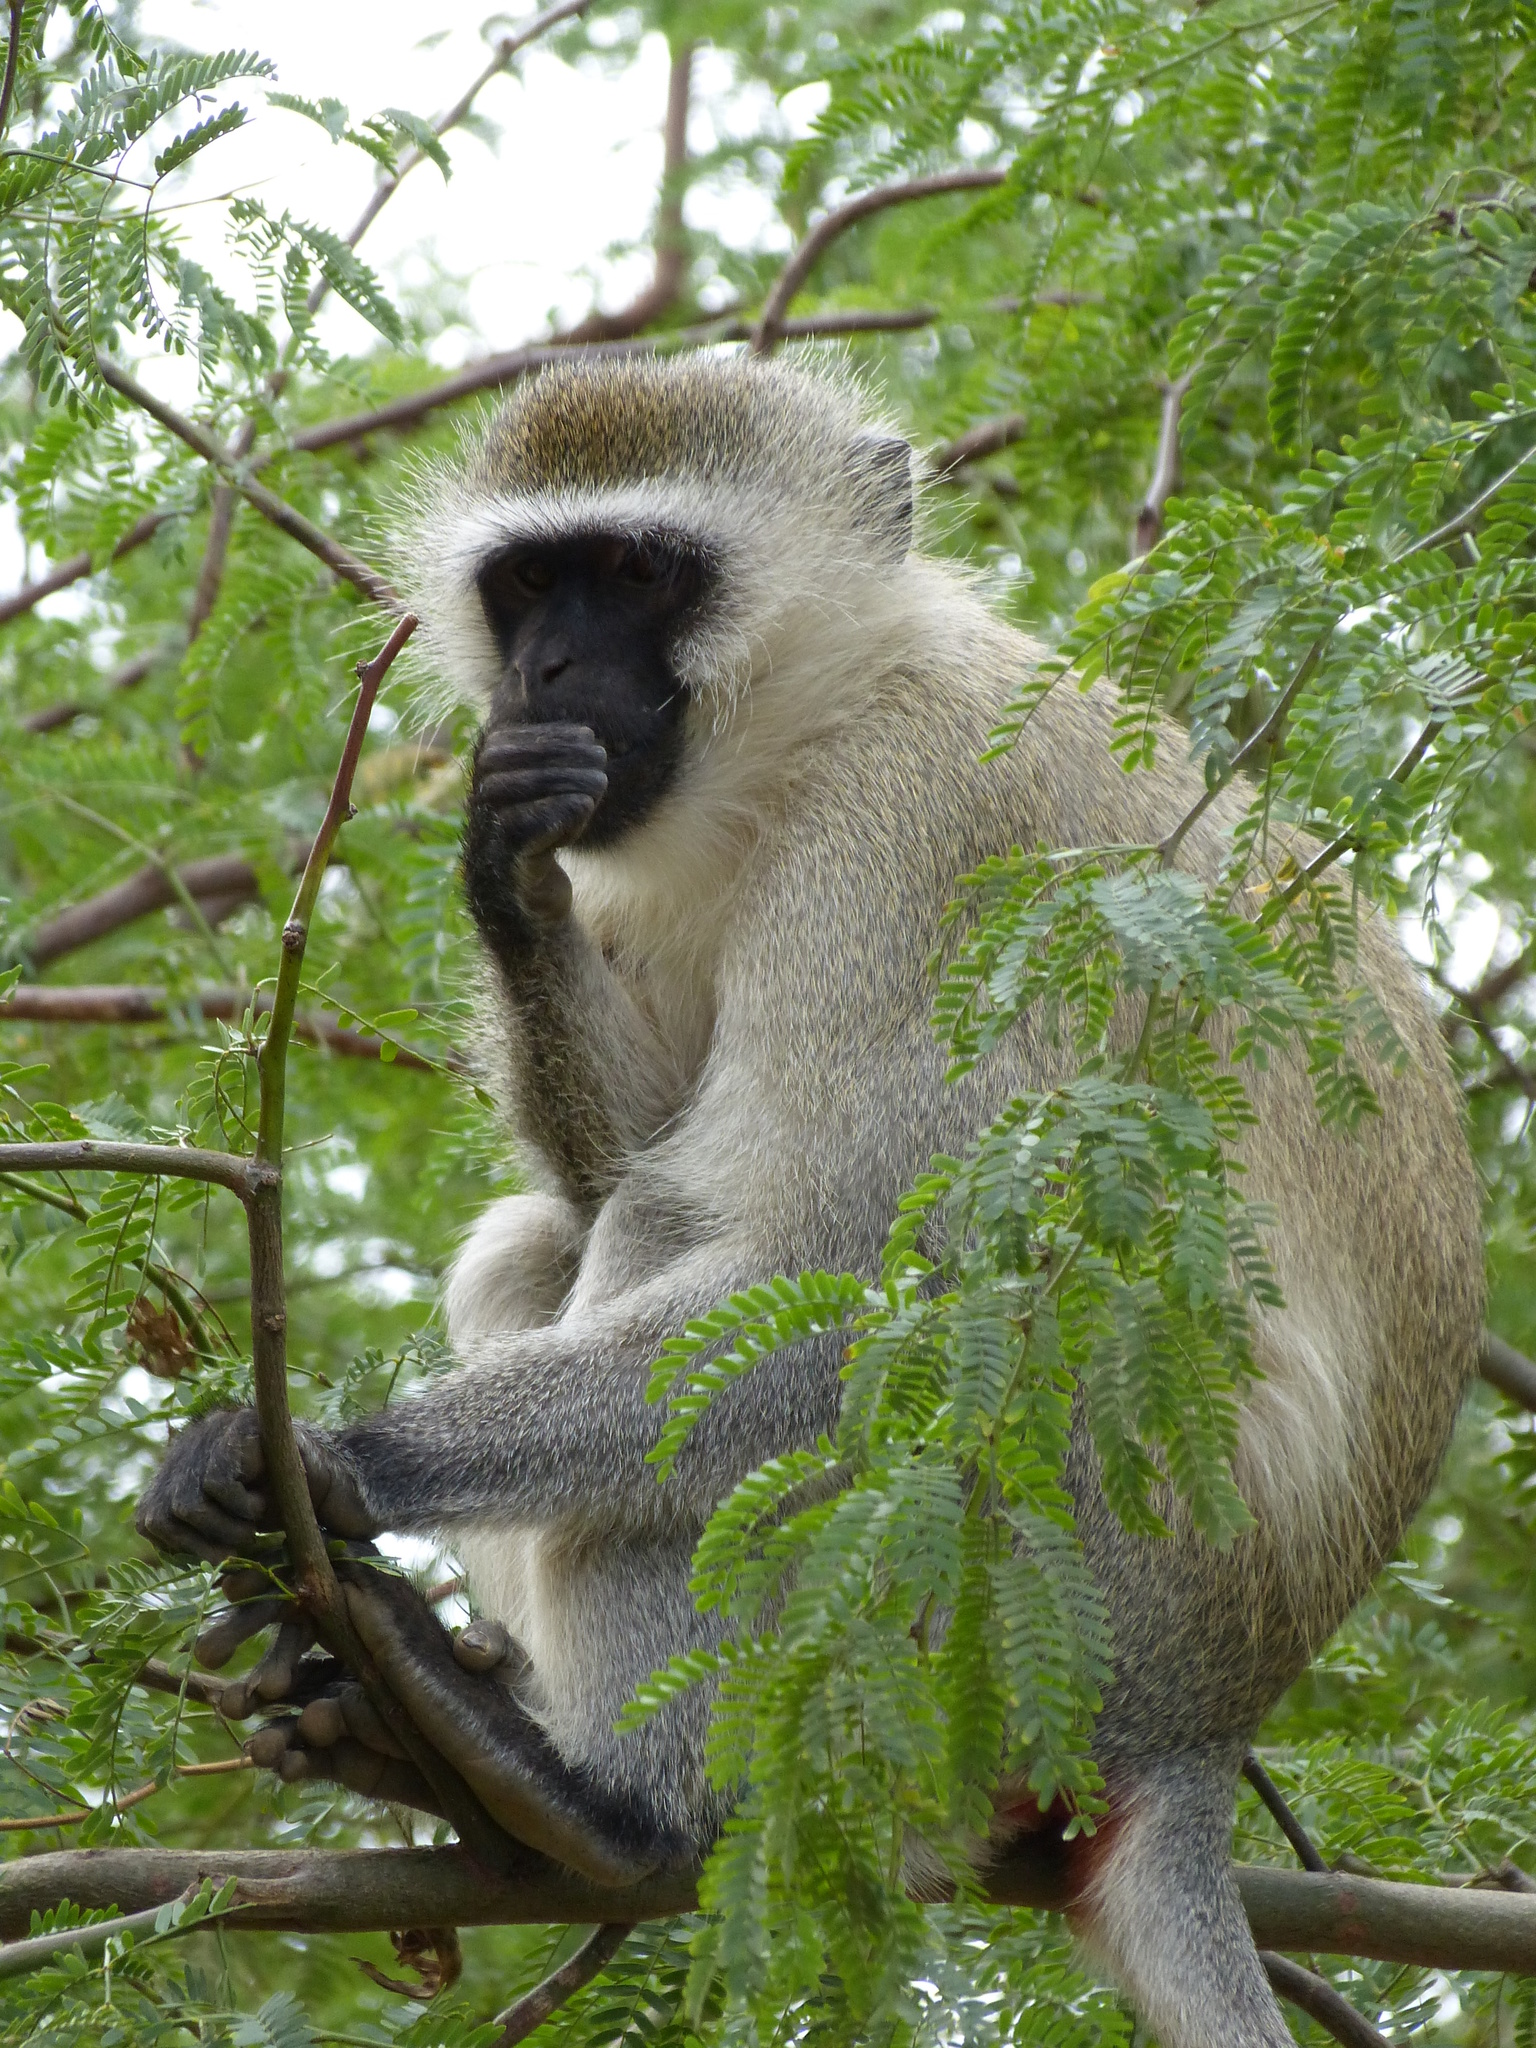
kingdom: Animalia
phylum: Chordata
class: Mammalia
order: Primates
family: Cercopithecidae
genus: Chlorocebus
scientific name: Chlorocebus pygerythrus
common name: Vervet monkey
